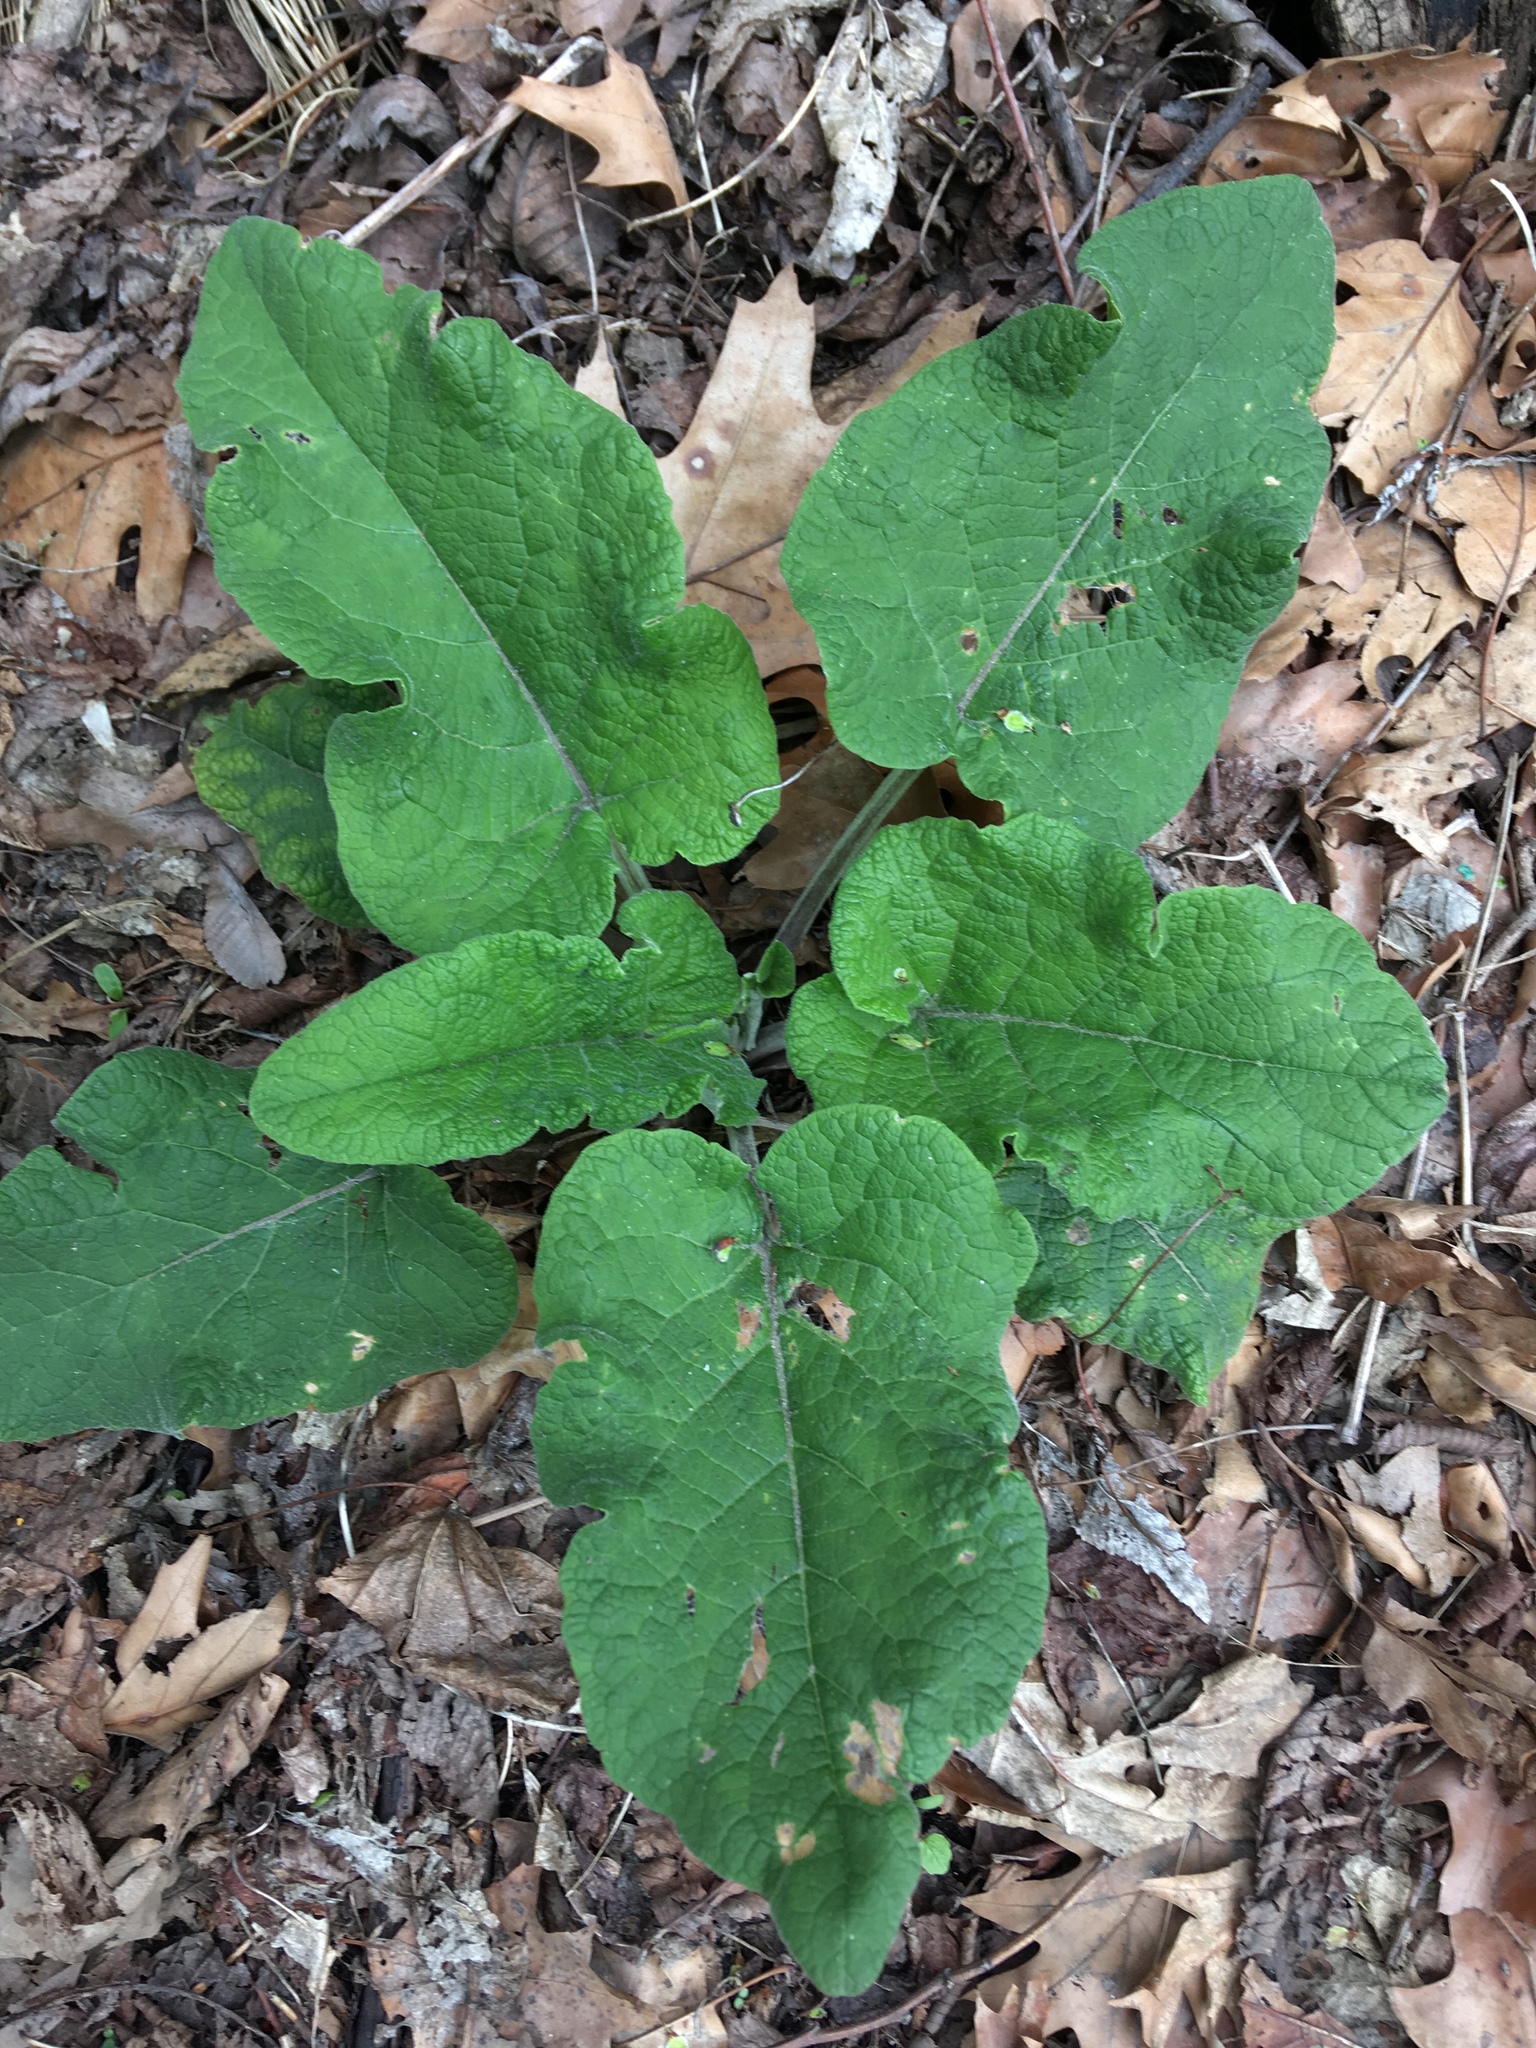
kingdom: Plantae
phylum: Tracheophyta
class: Magnoliopsida
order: Asterales
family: Asteraceae
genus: Arctium
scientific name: Arctium
